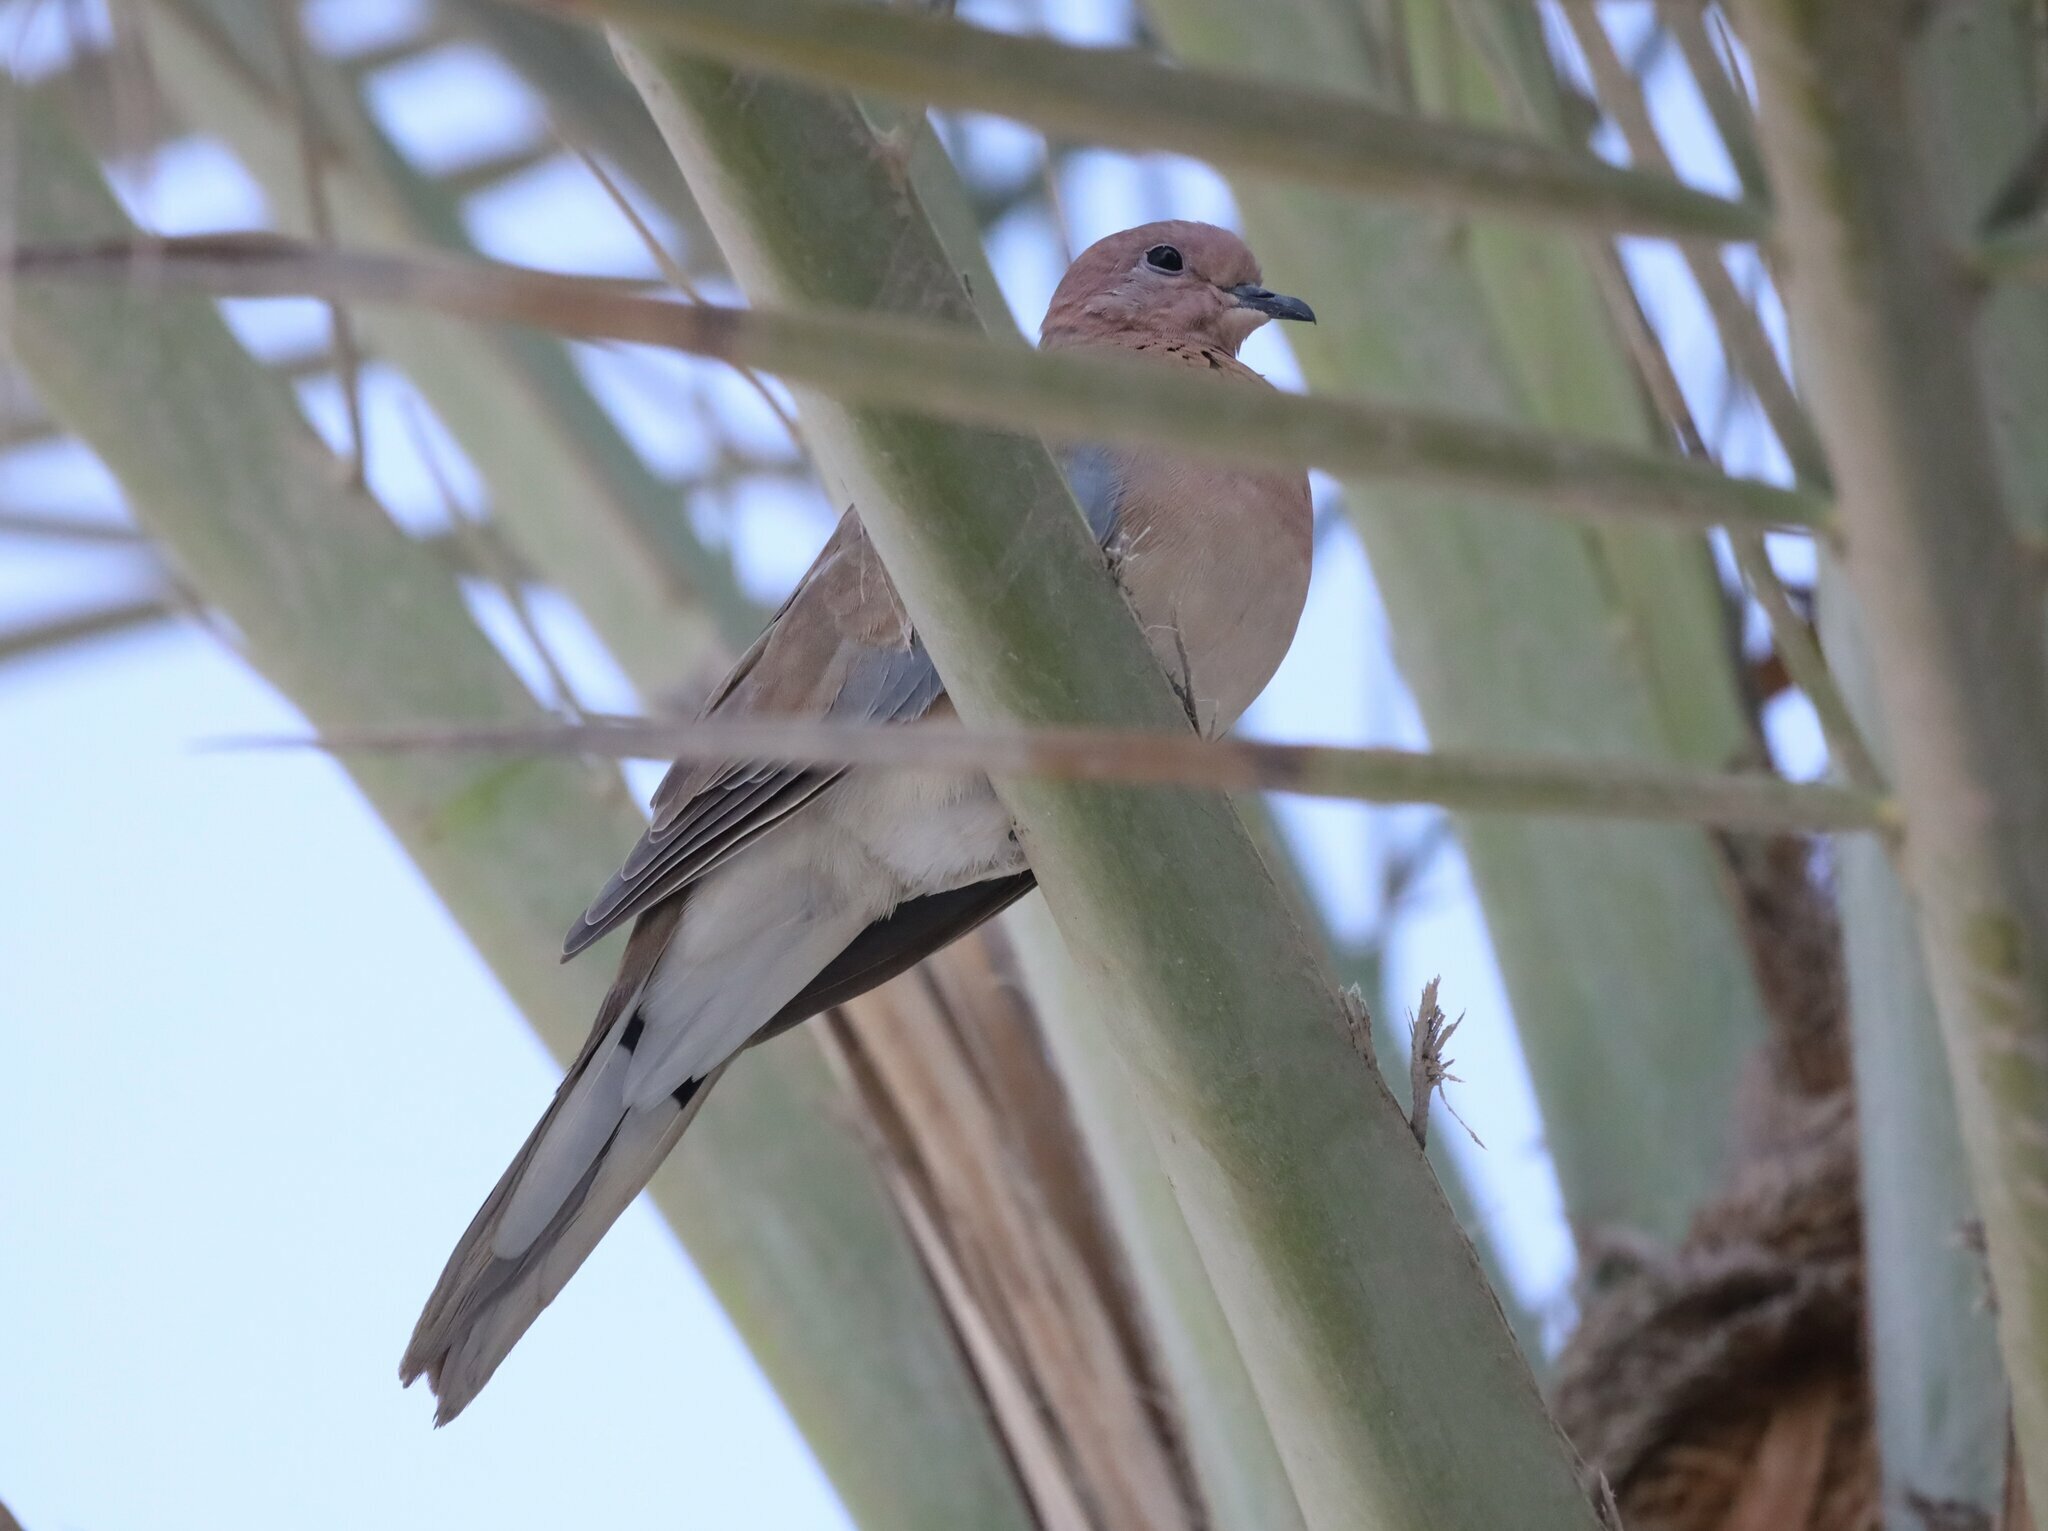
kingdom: Animalia
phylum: Chordata
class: Aves
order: Columbiformes
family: Columbidae
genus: Spilopelia
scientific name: Spilopelia senegalensis
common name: Laughing dove
